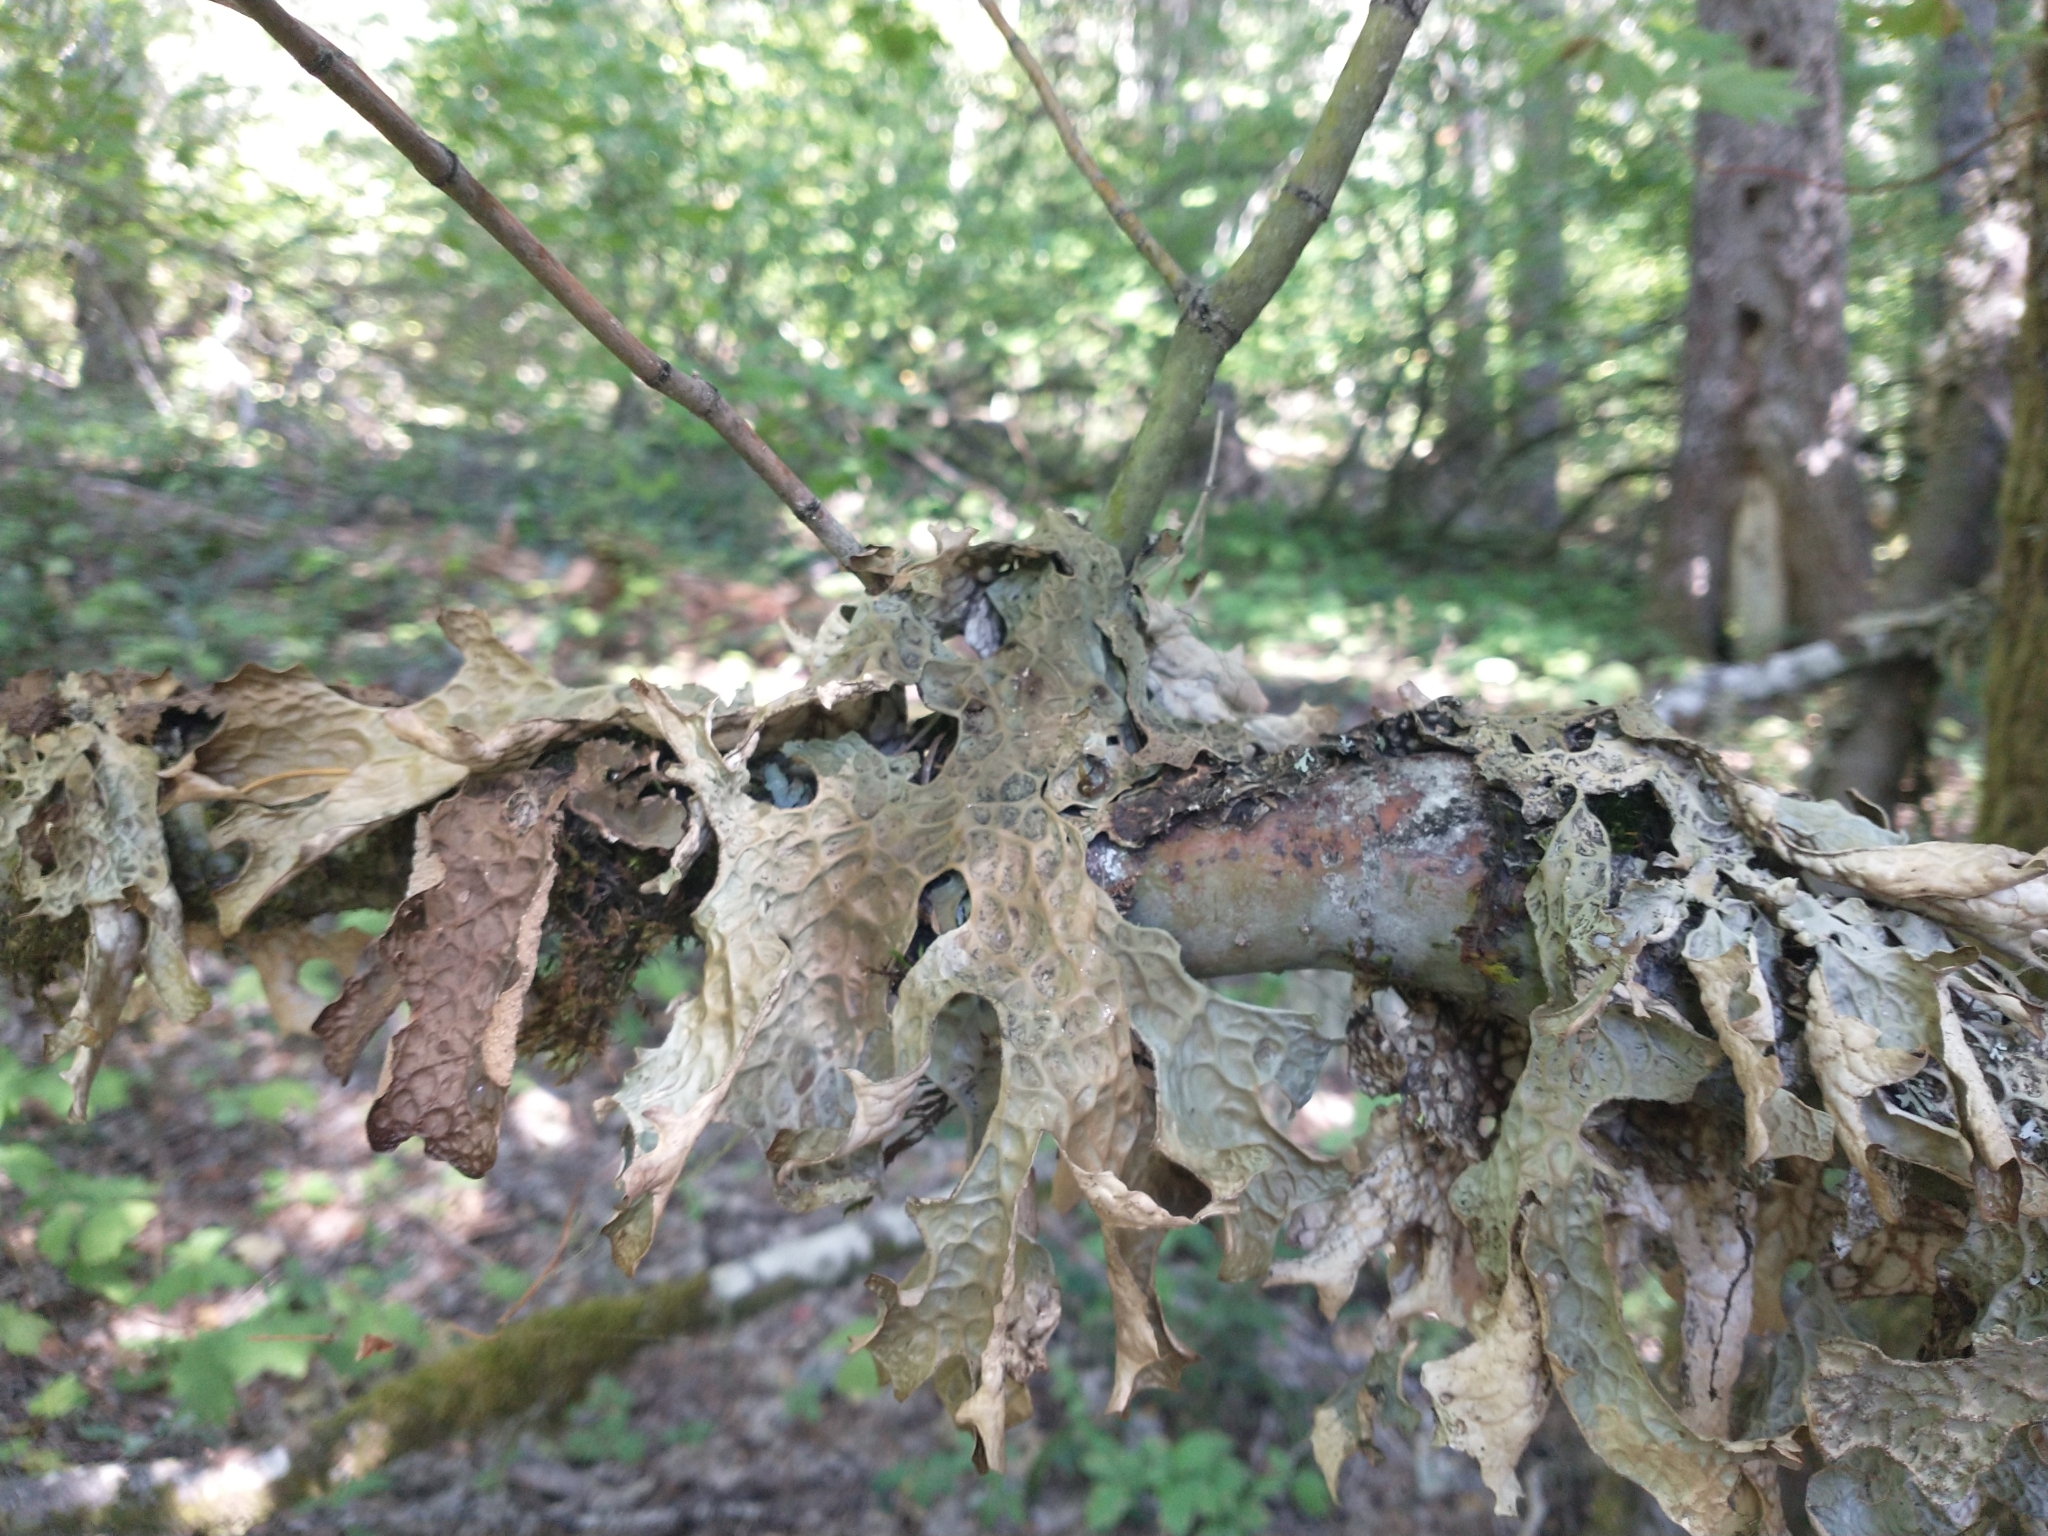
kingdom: Fungi
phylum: Ascomycota
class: Lecanoromycetes
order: Peltigerales
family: Lobariaceae
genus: Lobaria
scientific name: Lobaria pulmonaria
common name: Lungwort
